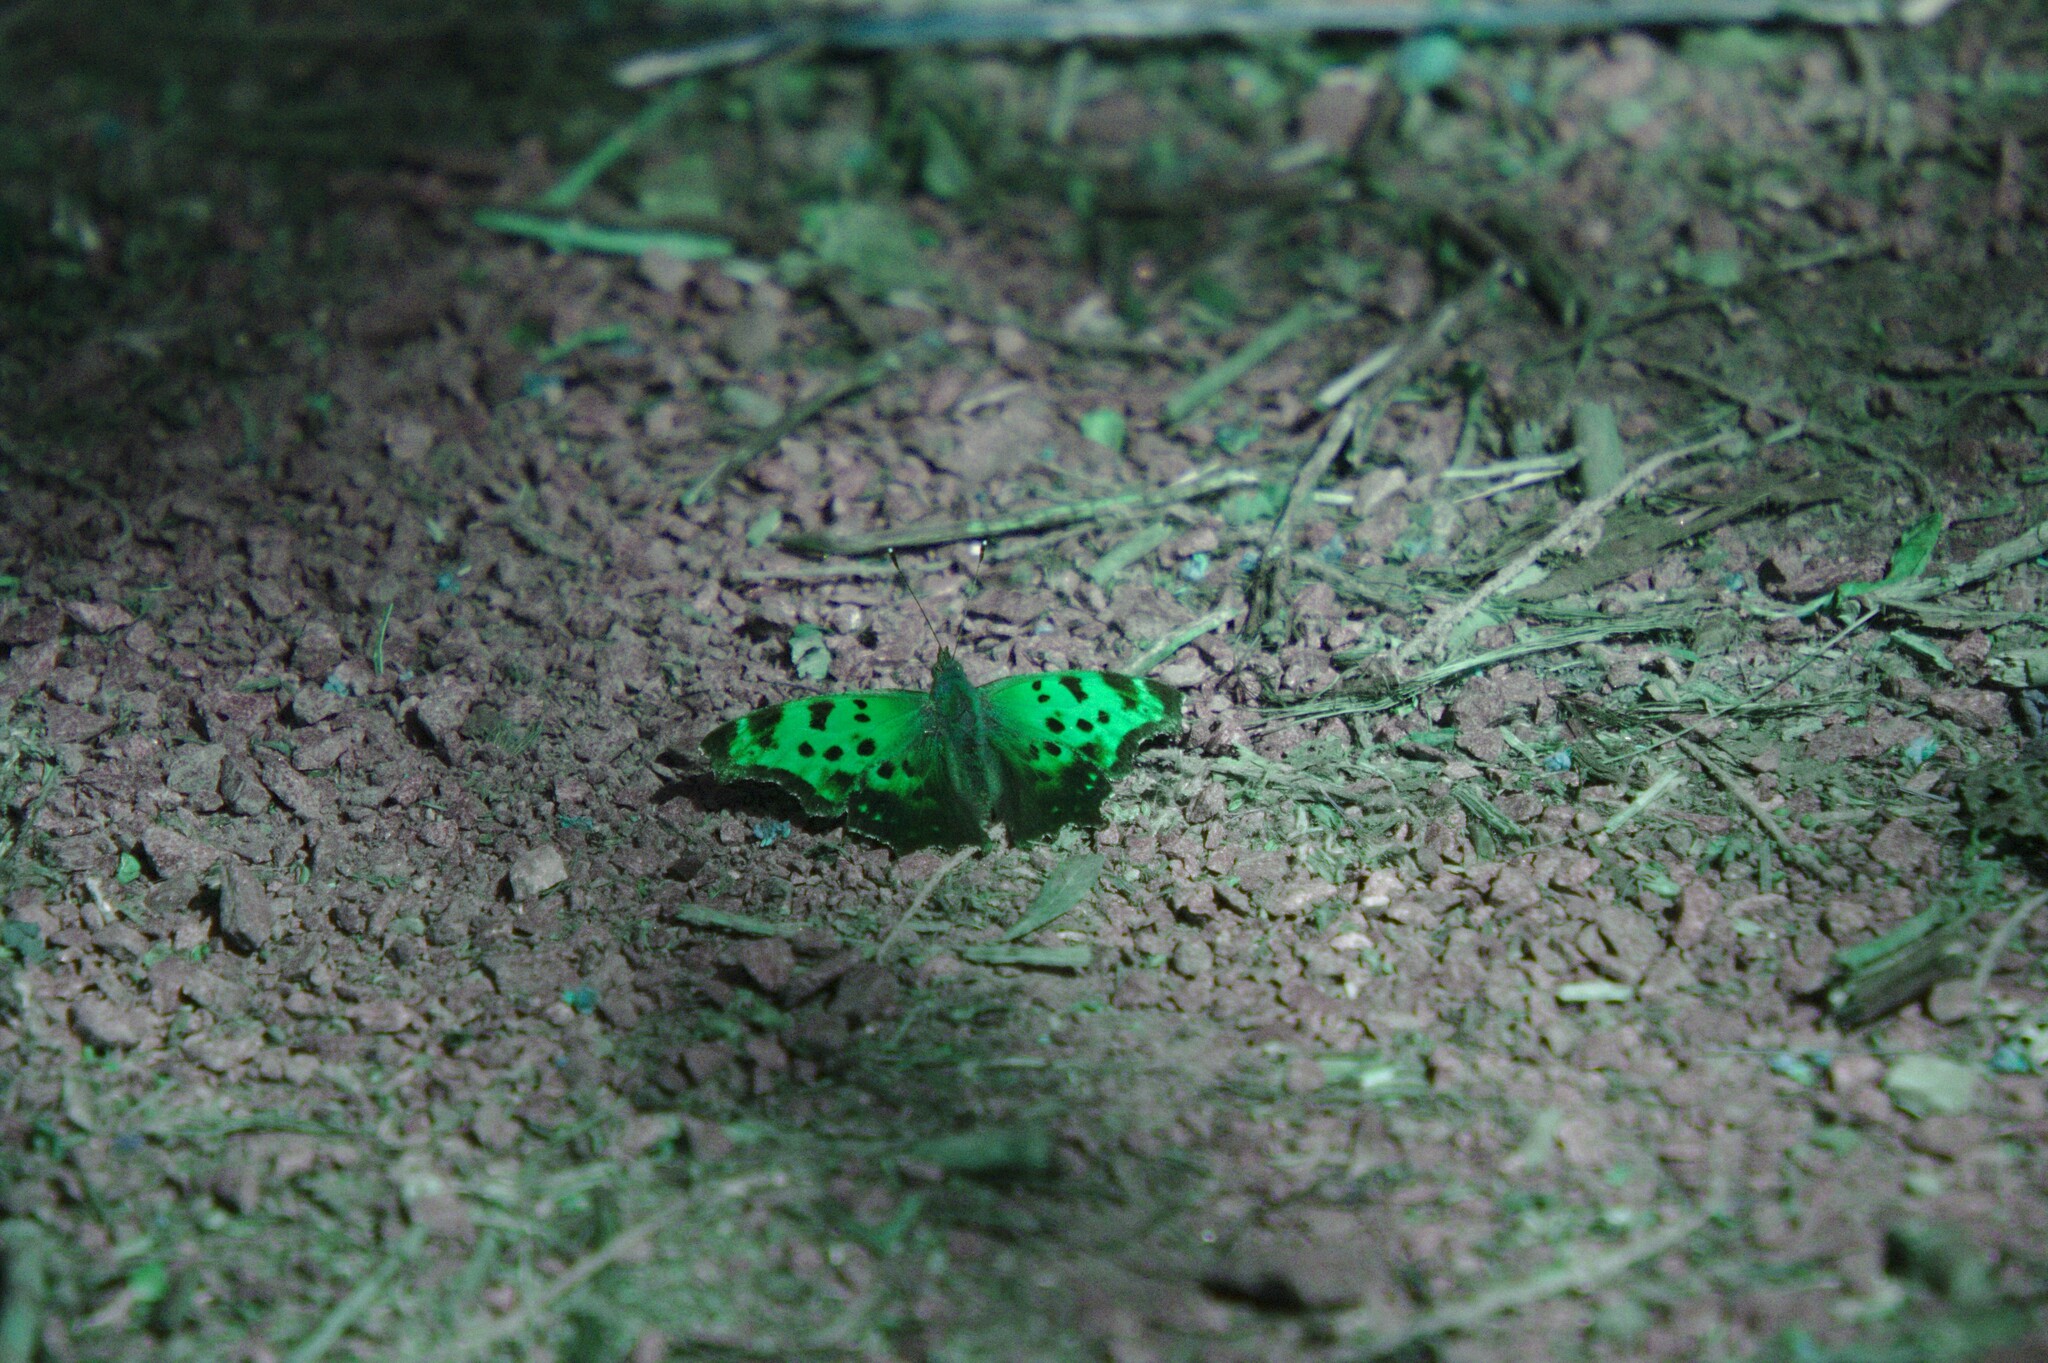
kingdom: Animalia
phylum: Arthropoda
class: Insecta
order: Lepidoptera
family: Nymphalidae
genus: Polygonia
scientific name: Polygonia comma
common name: Eastern comma
